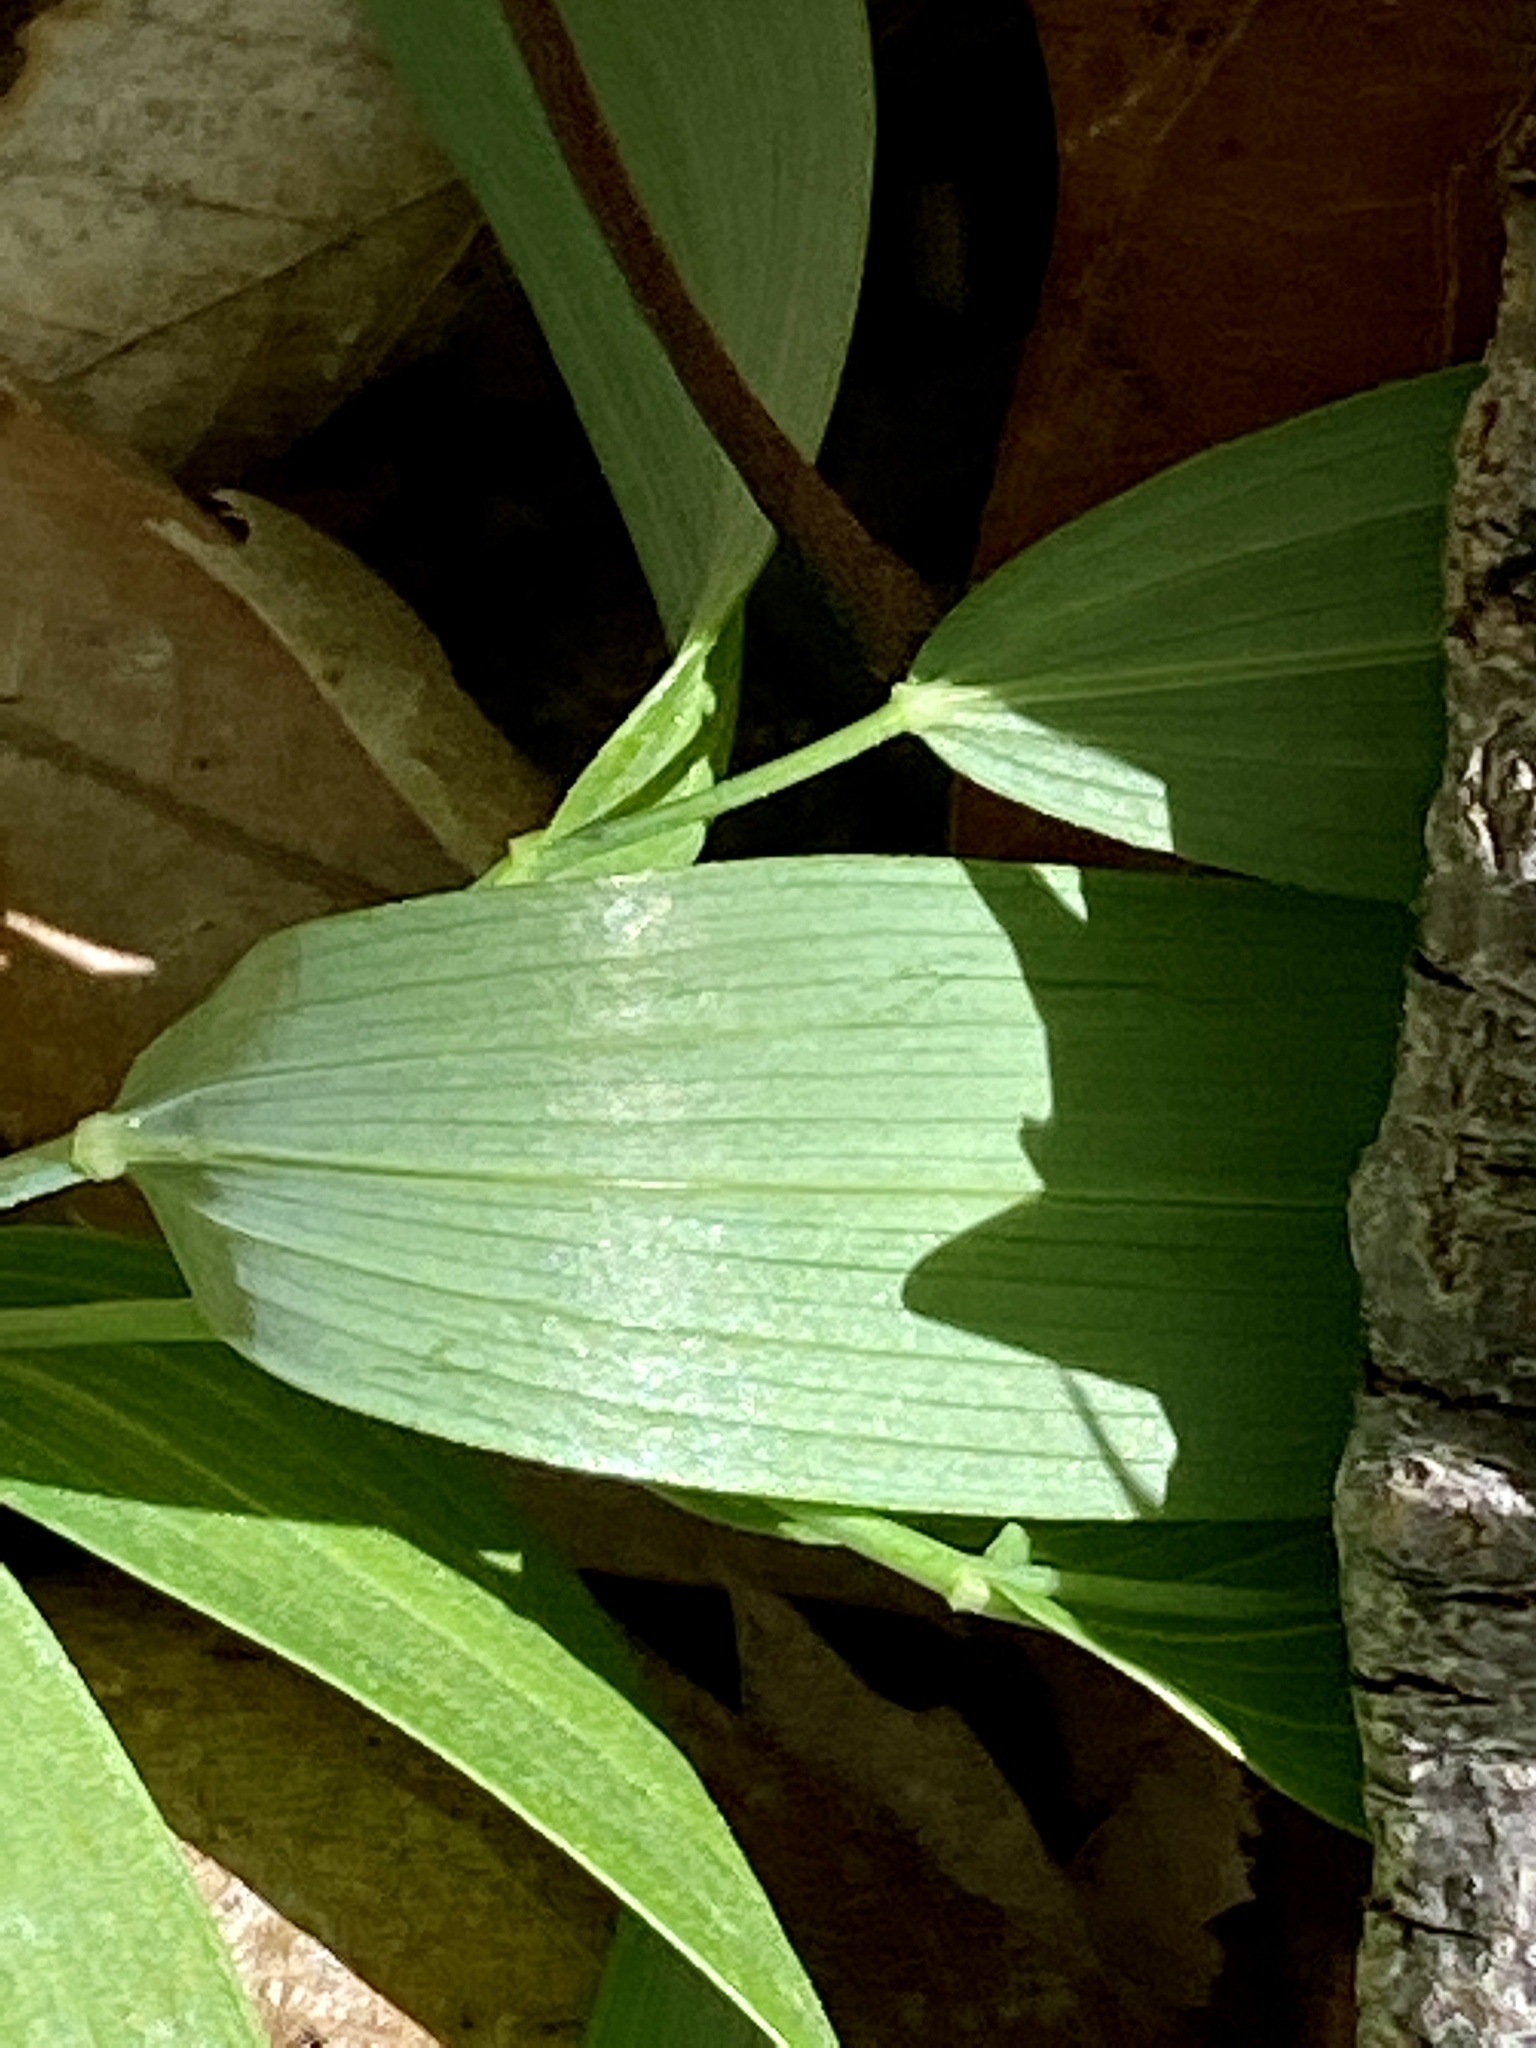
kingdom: Plantae
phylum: Tracheophyta
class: Liliopsida
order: Asparagales
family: Asparagaceae
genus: Polygonatum
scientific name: Polygonatum biflorum
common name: American solomon's-seal
